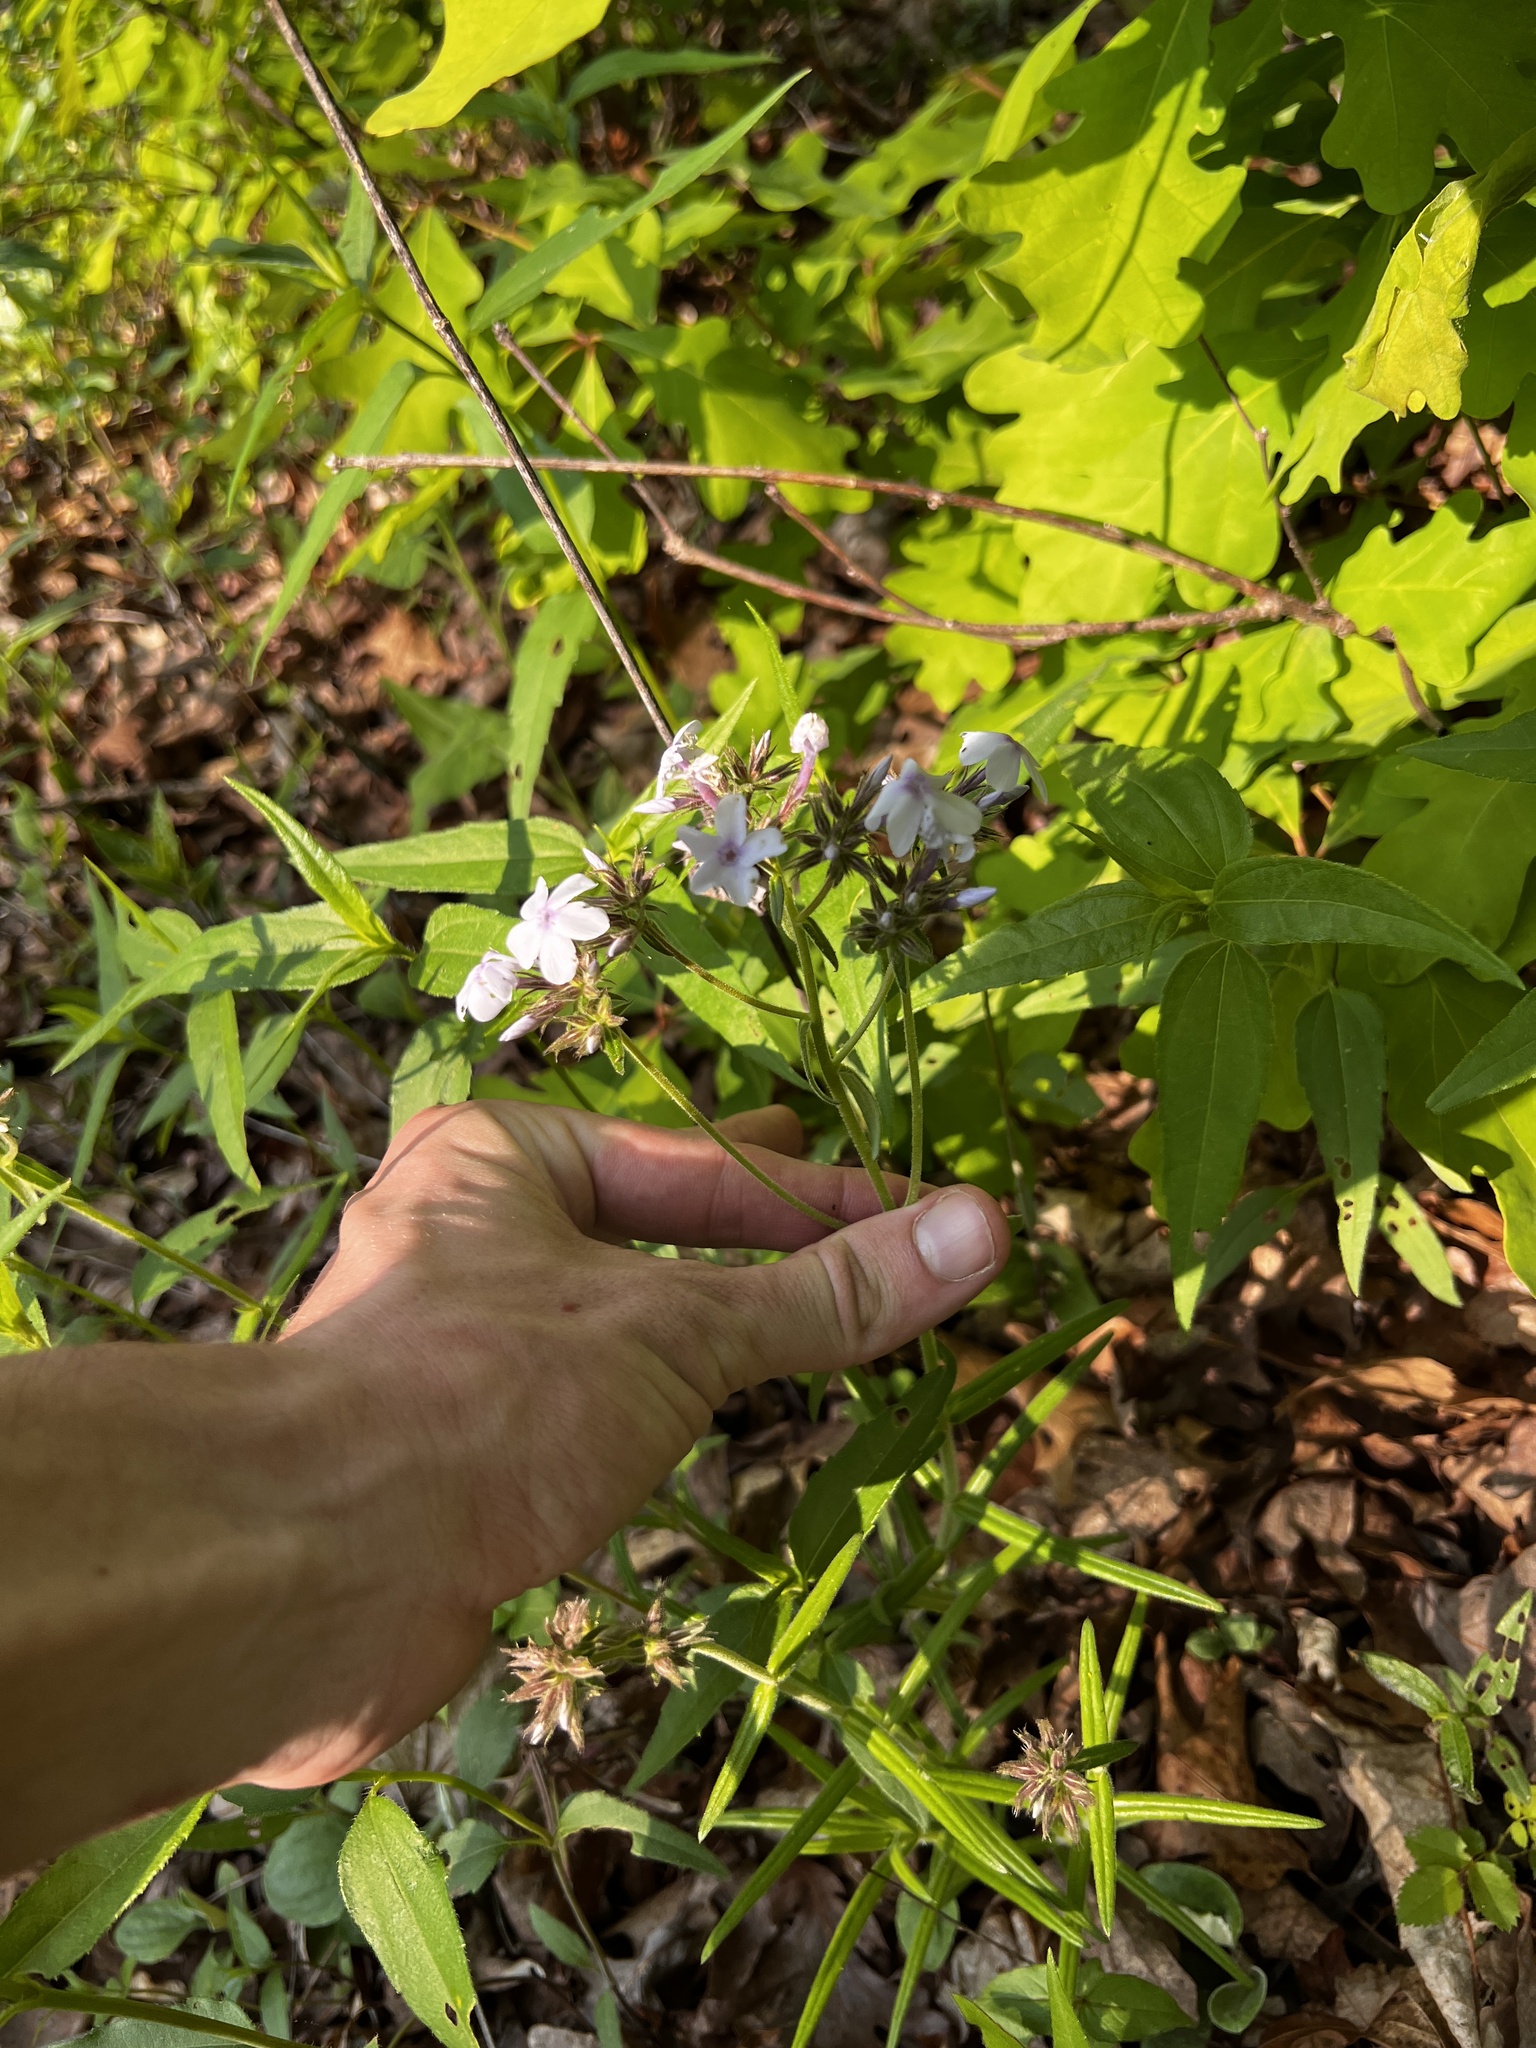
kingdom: Plantae
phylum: Tracheophyta
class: Magnoliopsida
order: Ericales
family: Polemoniaceae
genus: Phlox
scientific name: Phlox pilosa
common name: Prairie phlox
